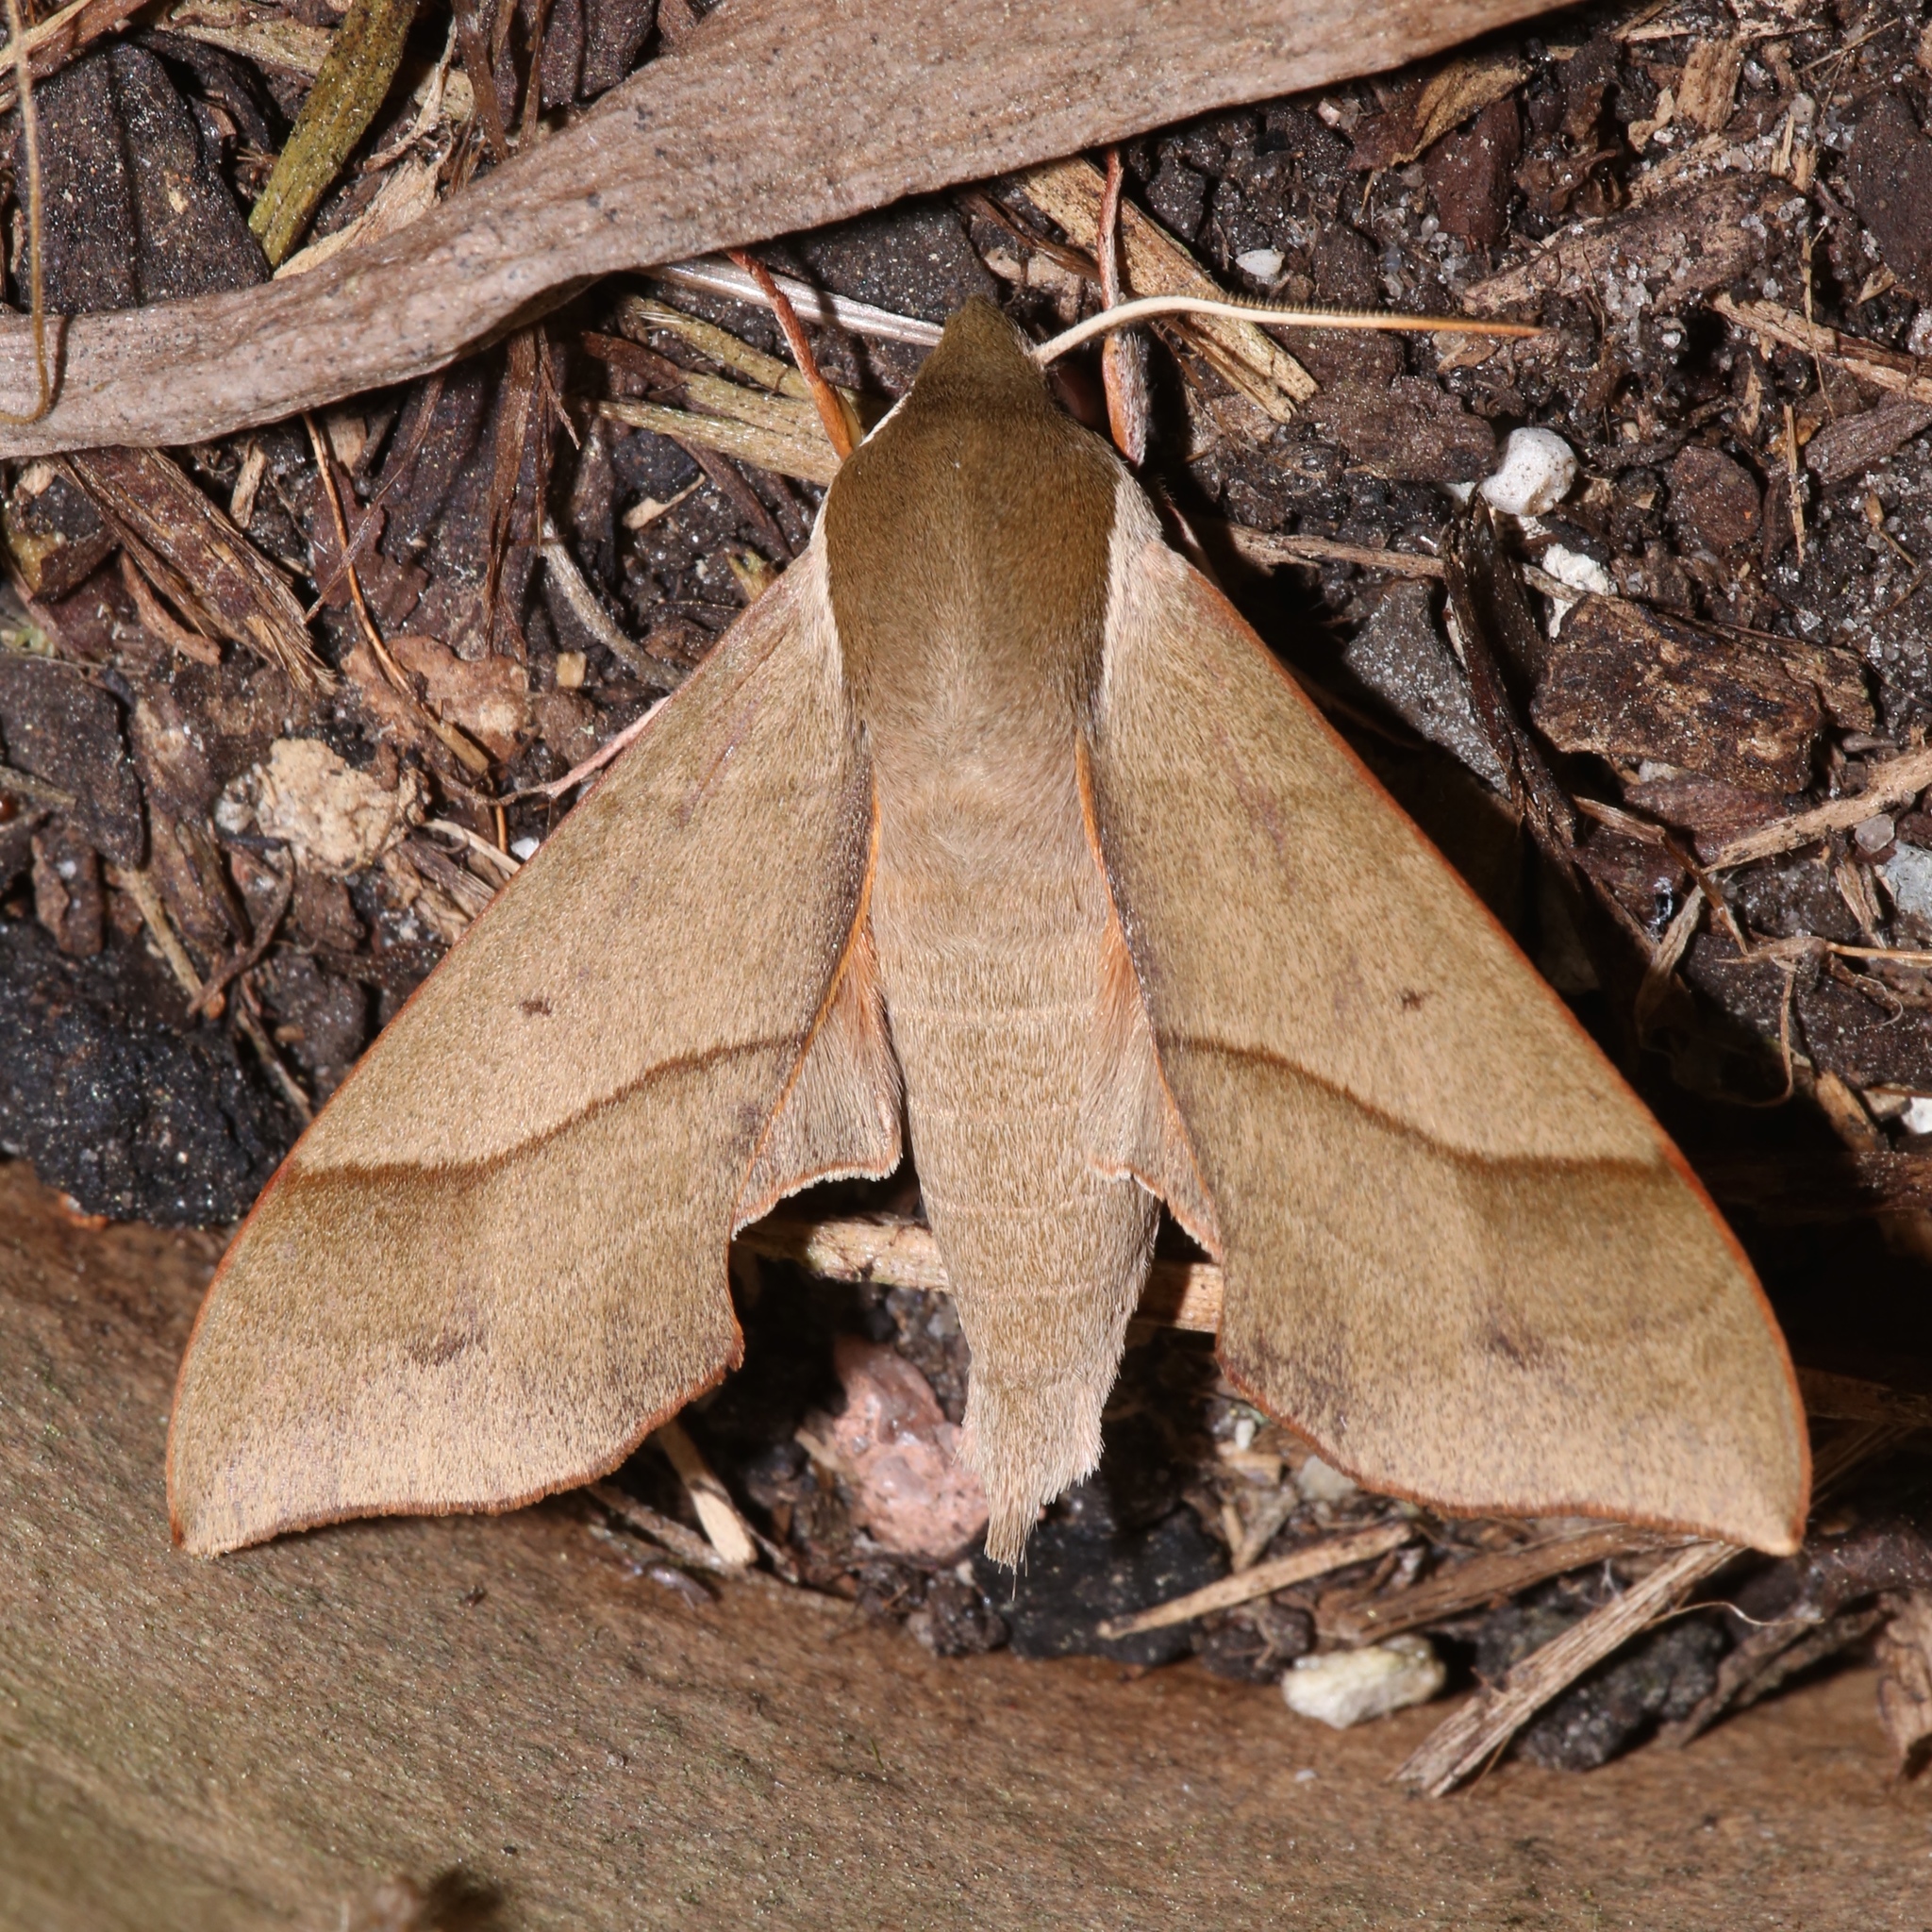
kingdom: Animalia
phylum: Arthropoda
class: Insecta
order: Lepidoptera
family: Sphingidae
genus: Darapsa
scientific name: Darapsa myron
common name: Hog sphinx
